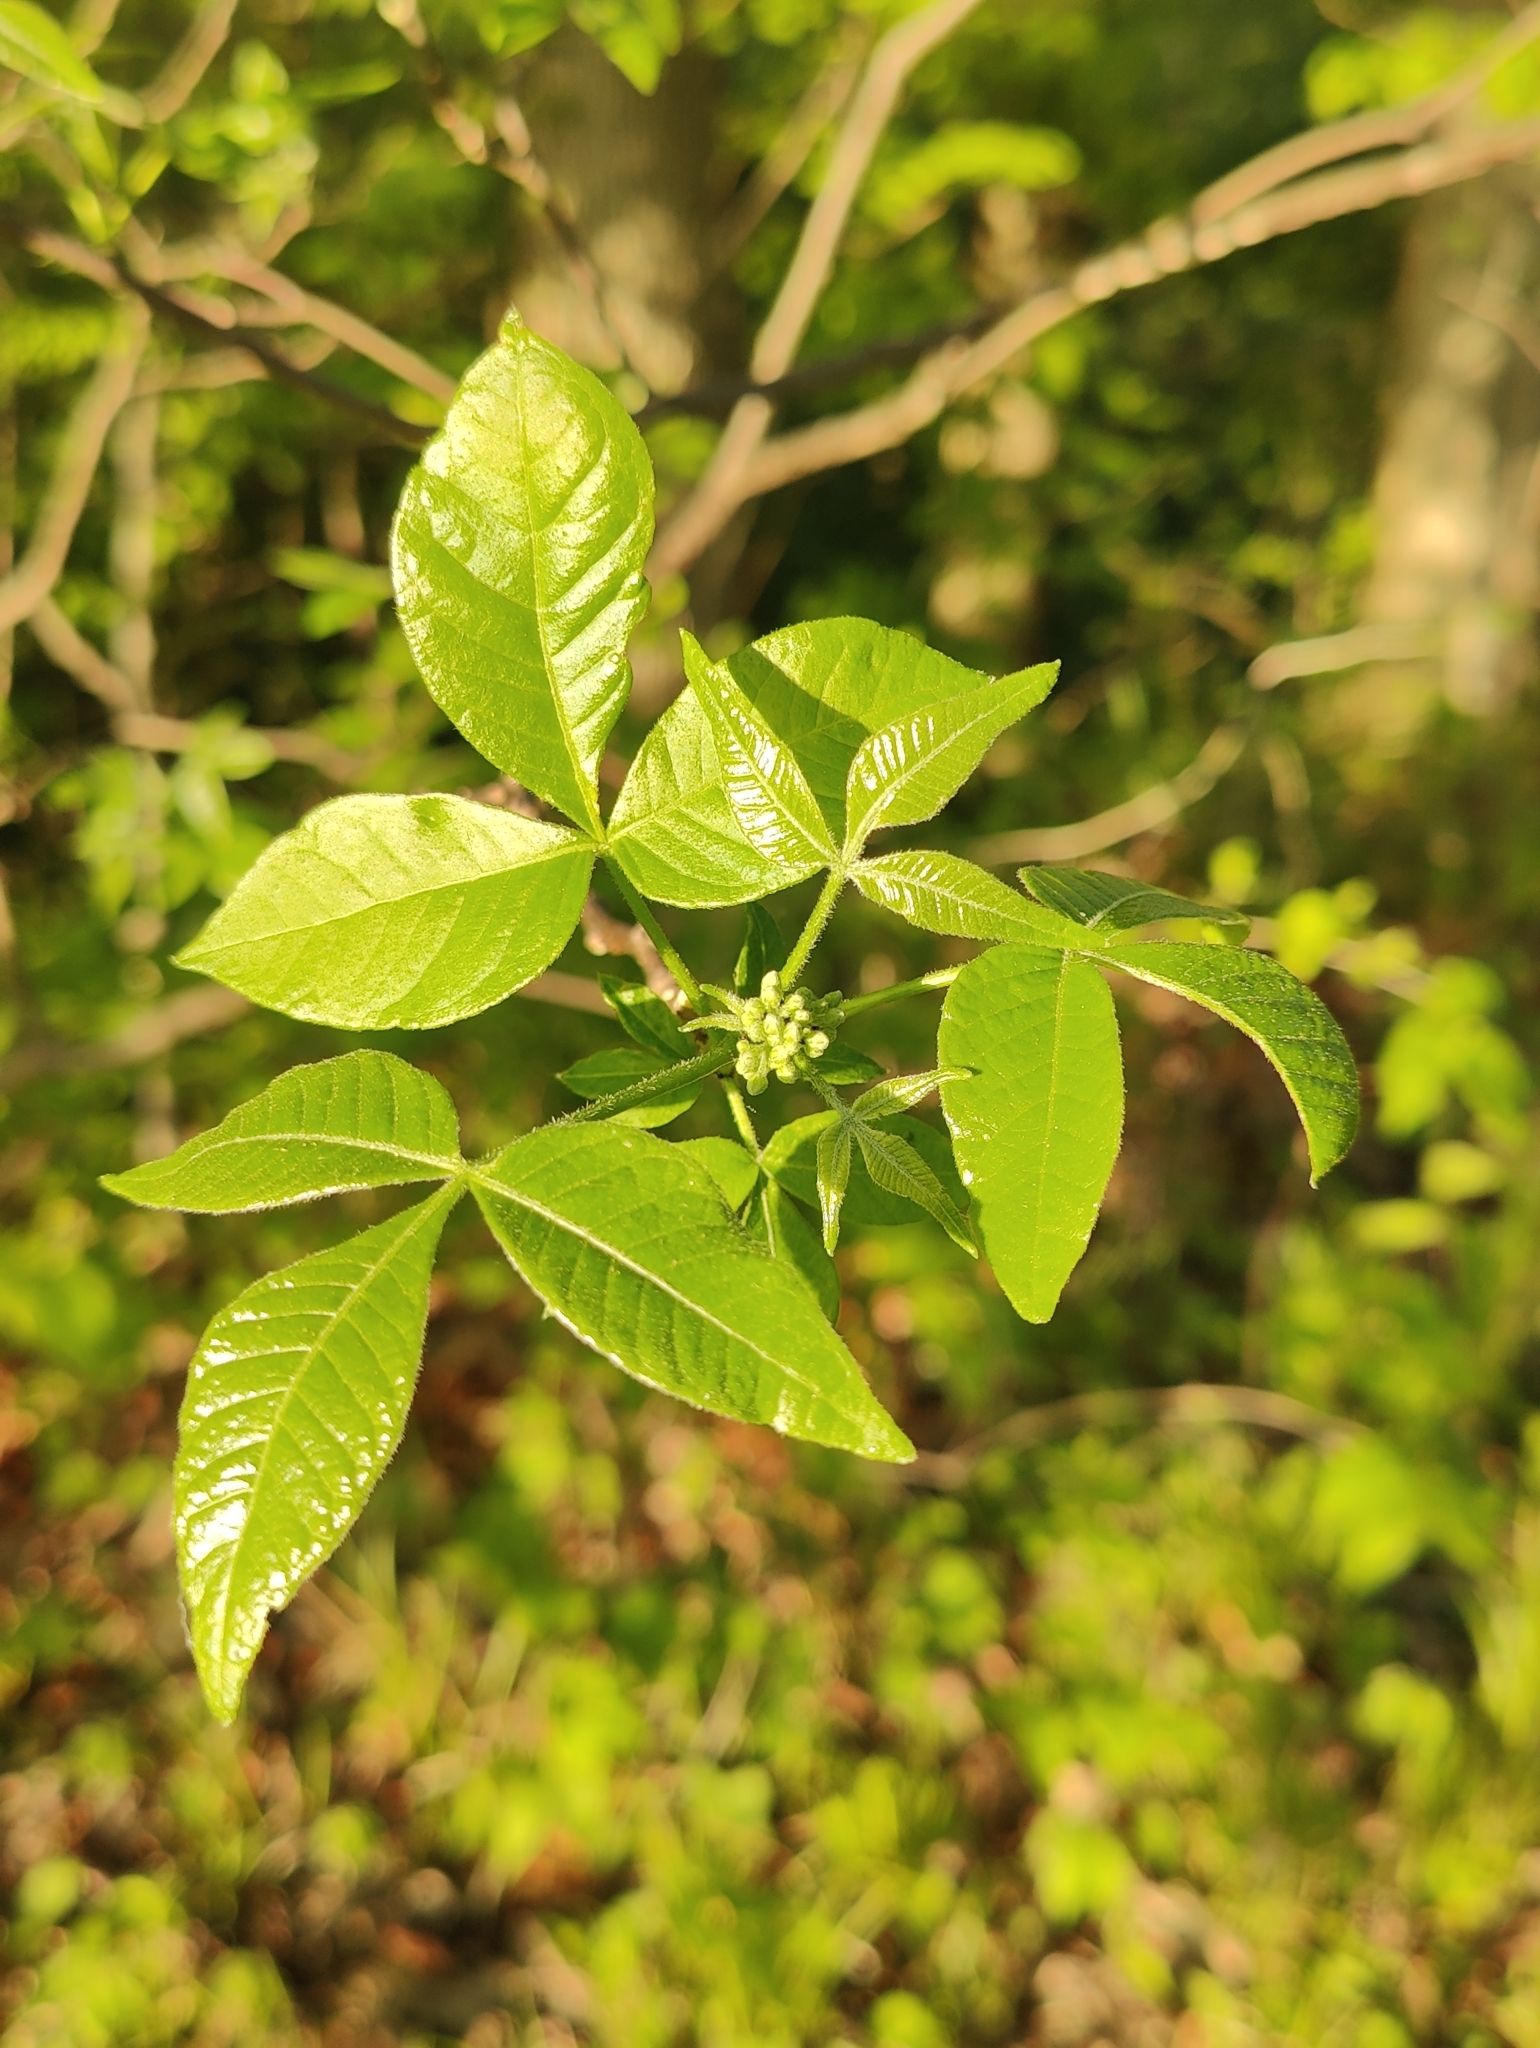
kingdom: Plantae
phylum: Tracheophyta
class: Magnoliopsida
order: Sapindales
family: Rutaceae
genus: Ptelea
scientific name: Ptelea trifoliata
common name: Common hop-tree
